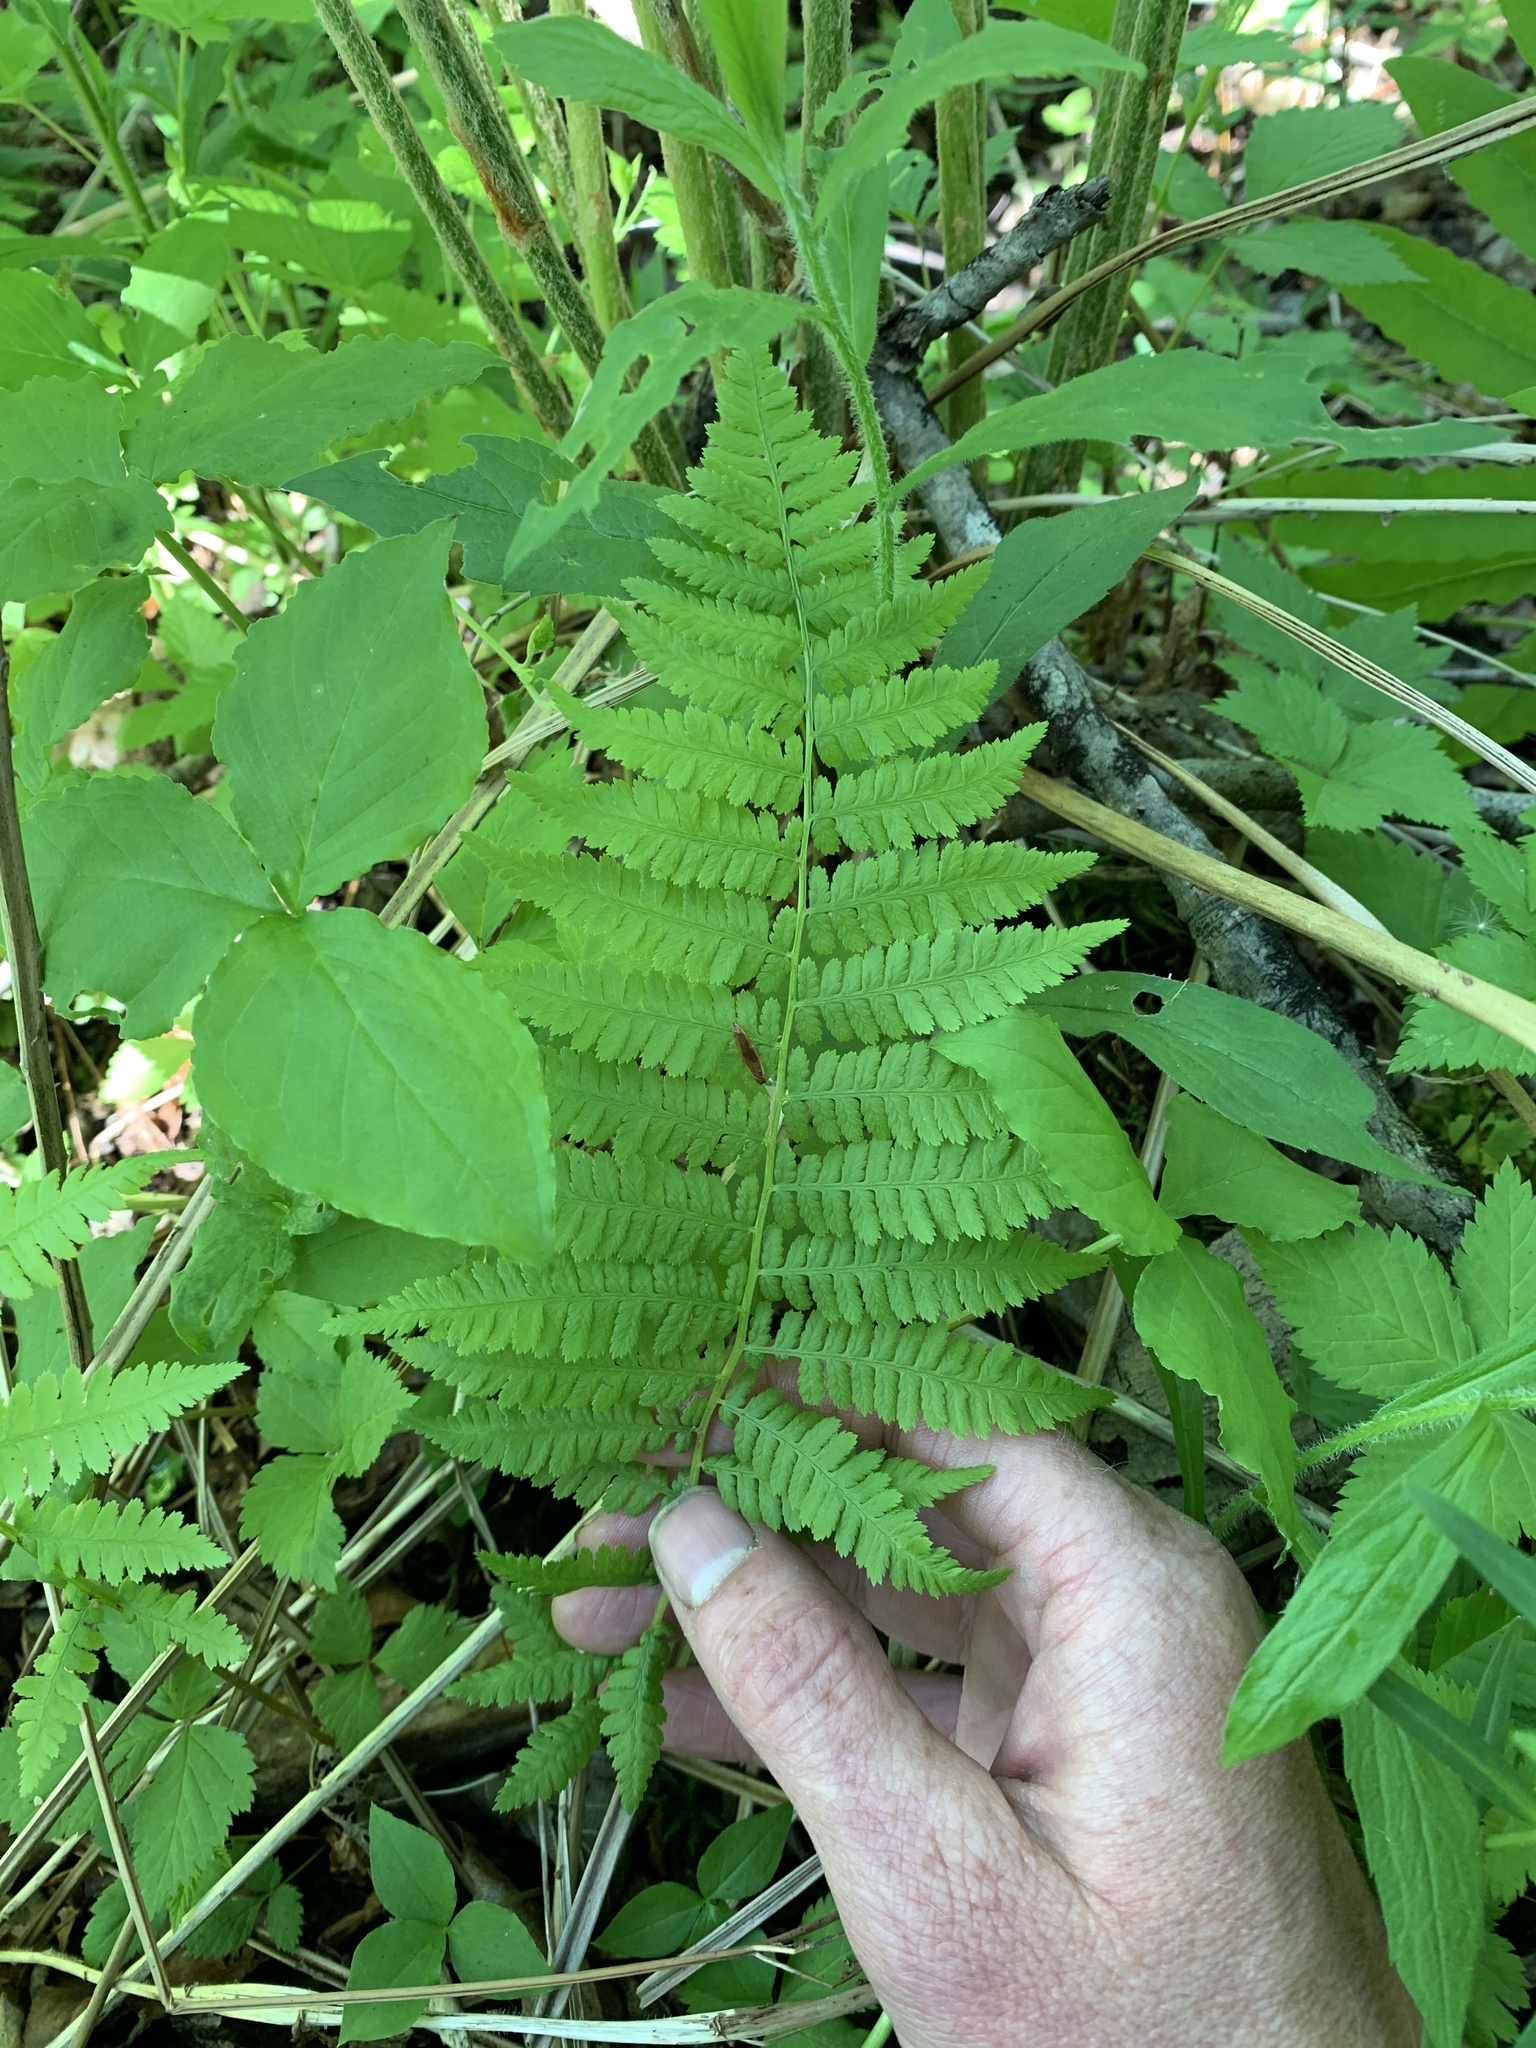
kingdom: Plantae
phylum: Tracheophyta
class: Polypodiopsida
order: Polypodiales
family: Thelypteridaceae
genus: Amauropelta
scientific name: Amauropelta noveboracensis
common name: New york fern
